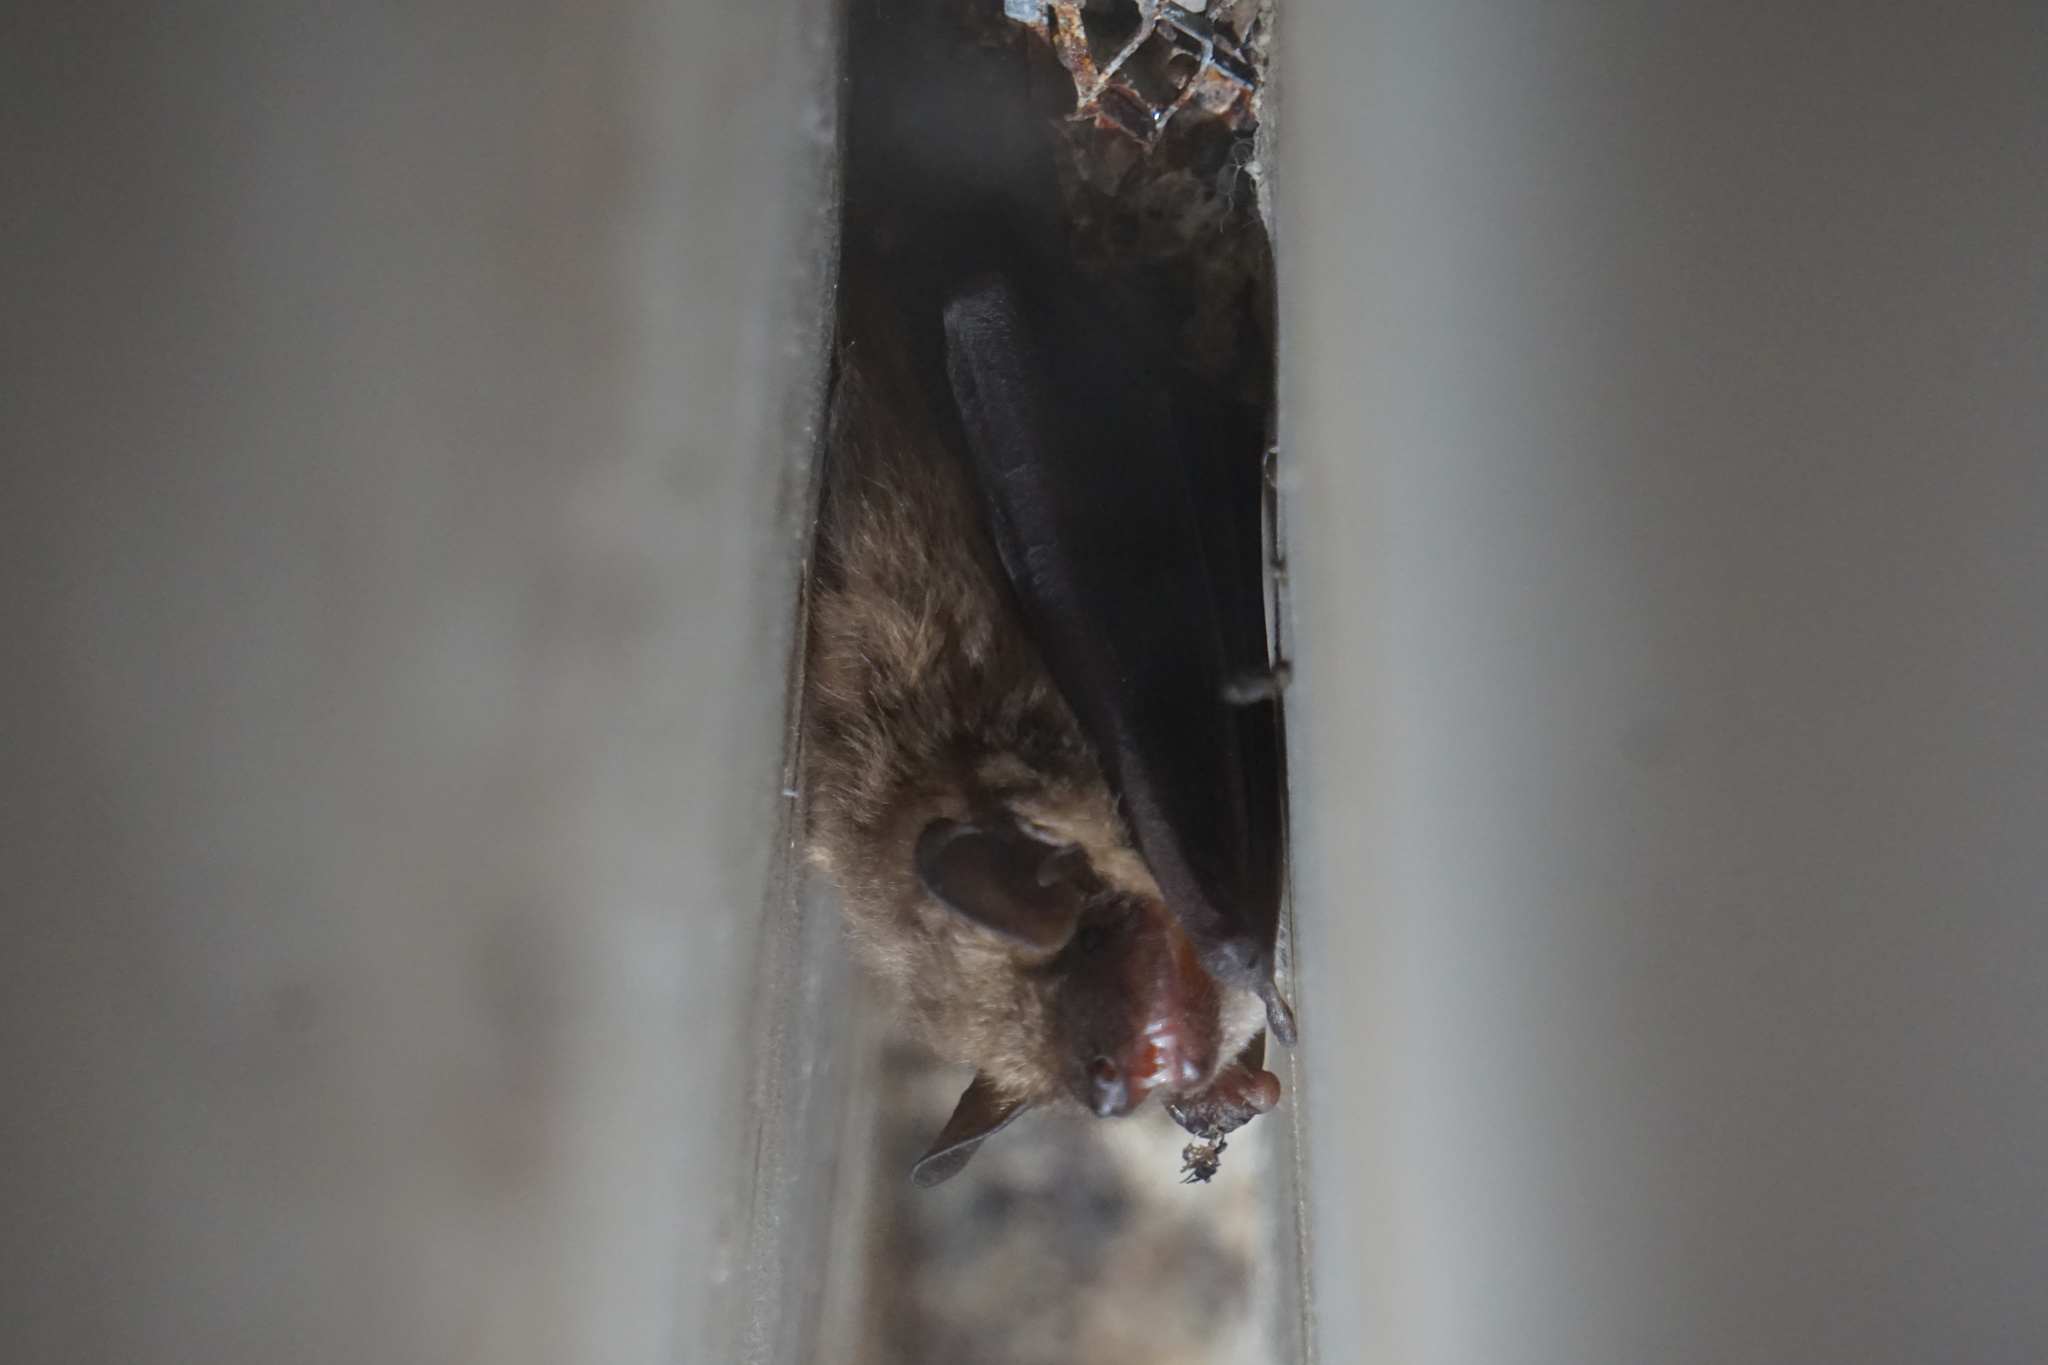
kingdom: Animalia
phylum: Chordata
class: Mammalia
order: Chiroptera
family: Vespertilionidae
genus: Eptesicus
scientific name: Eptesicus fuscus
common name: Big brown bat
